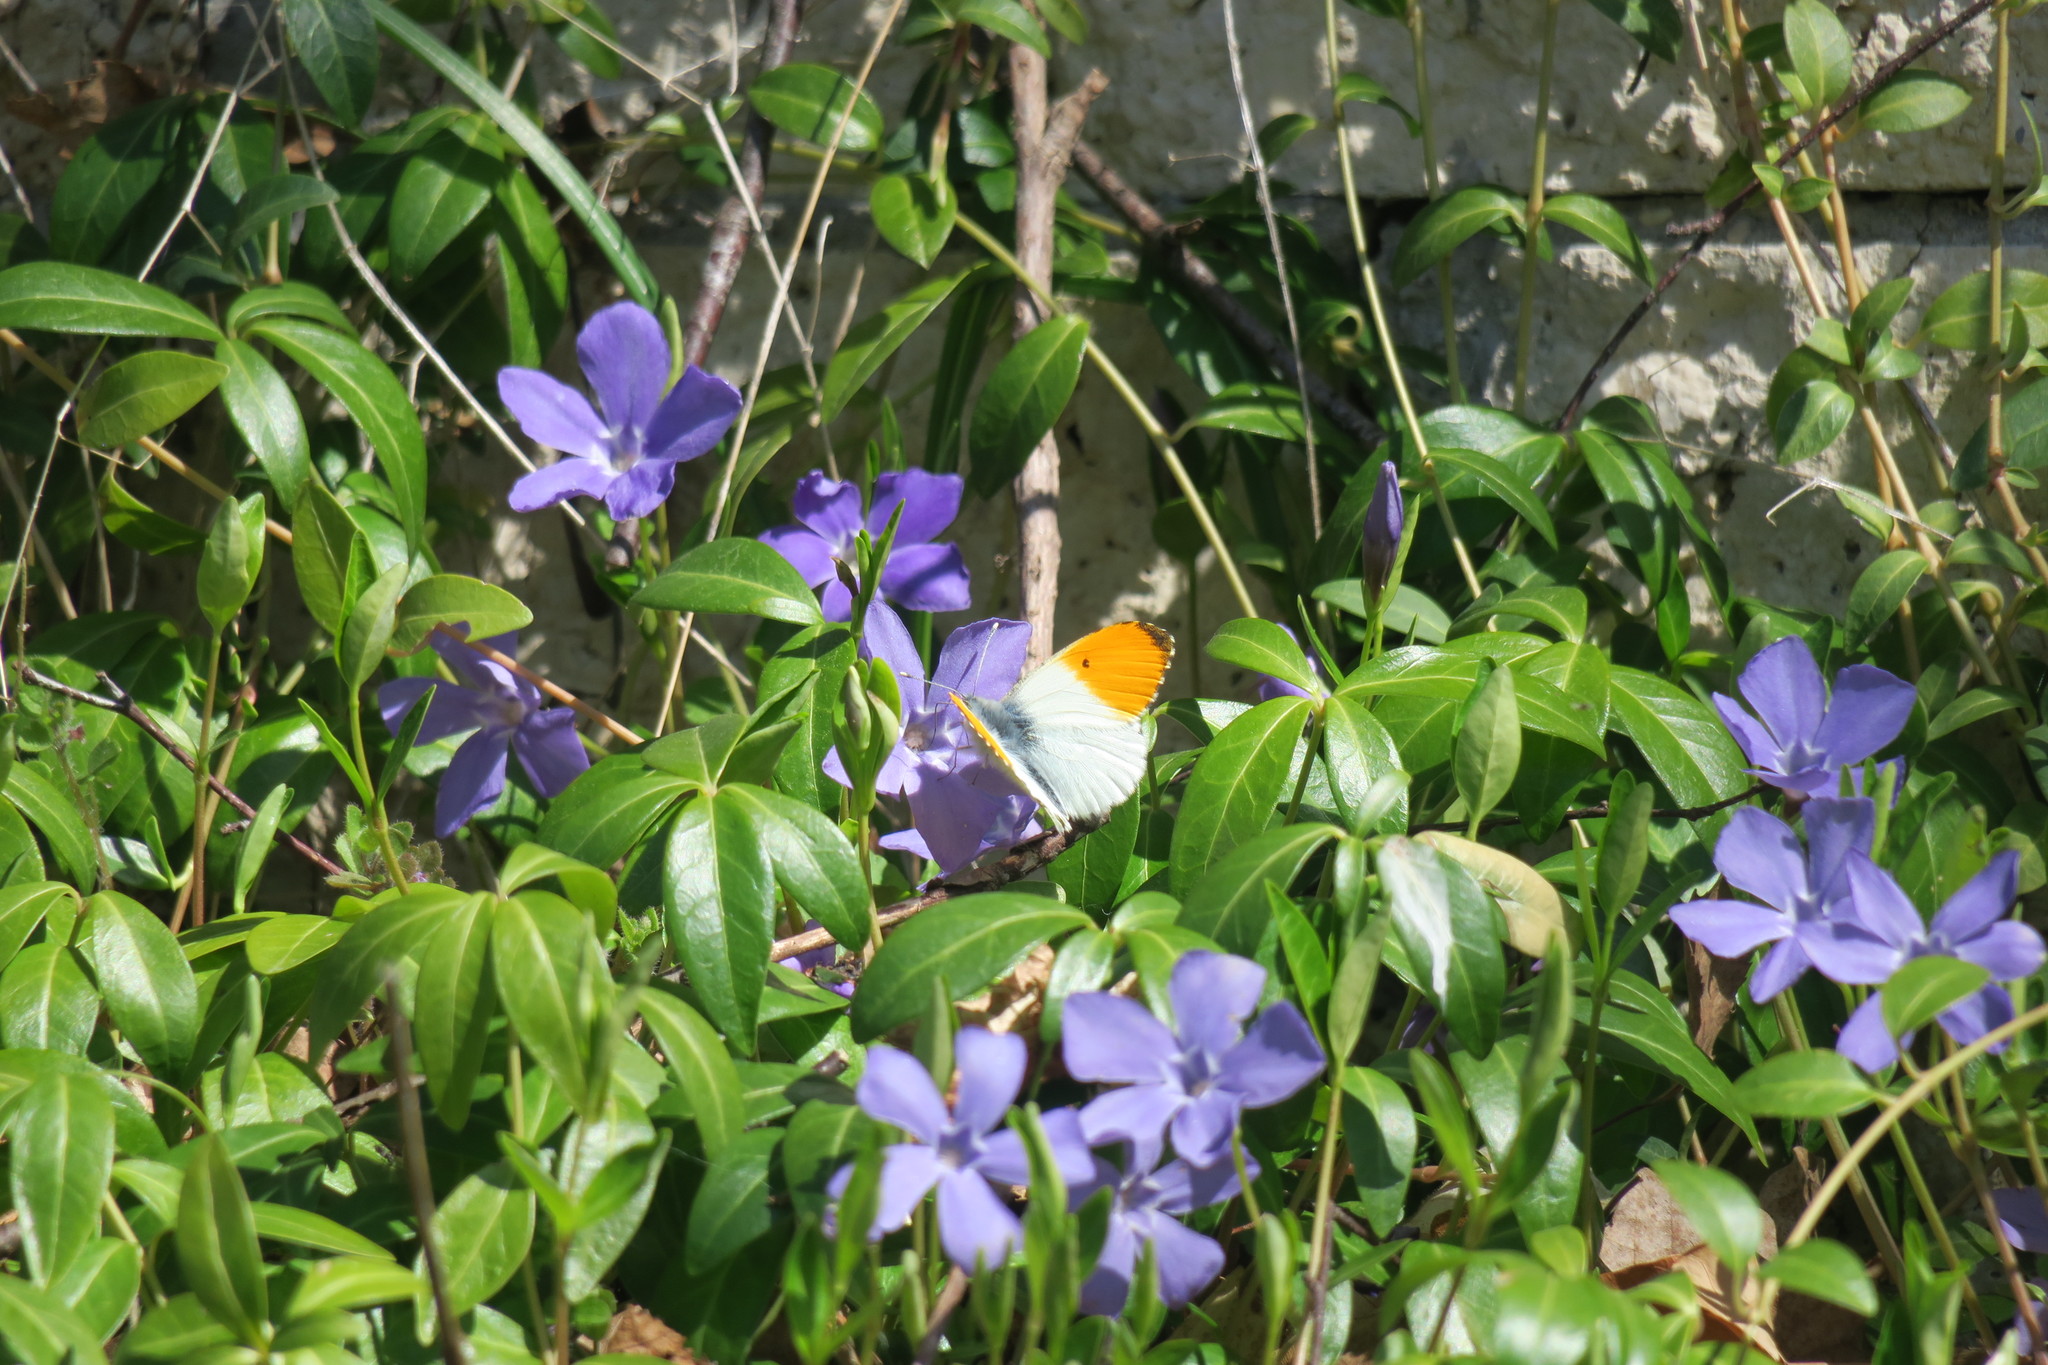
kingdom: Animalia
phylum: Arthropoda
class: Insecta
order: Lepidoptera
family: Pieridae
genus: Anthocharis
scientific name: Anthocharis cardamines
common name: Orange-tip
